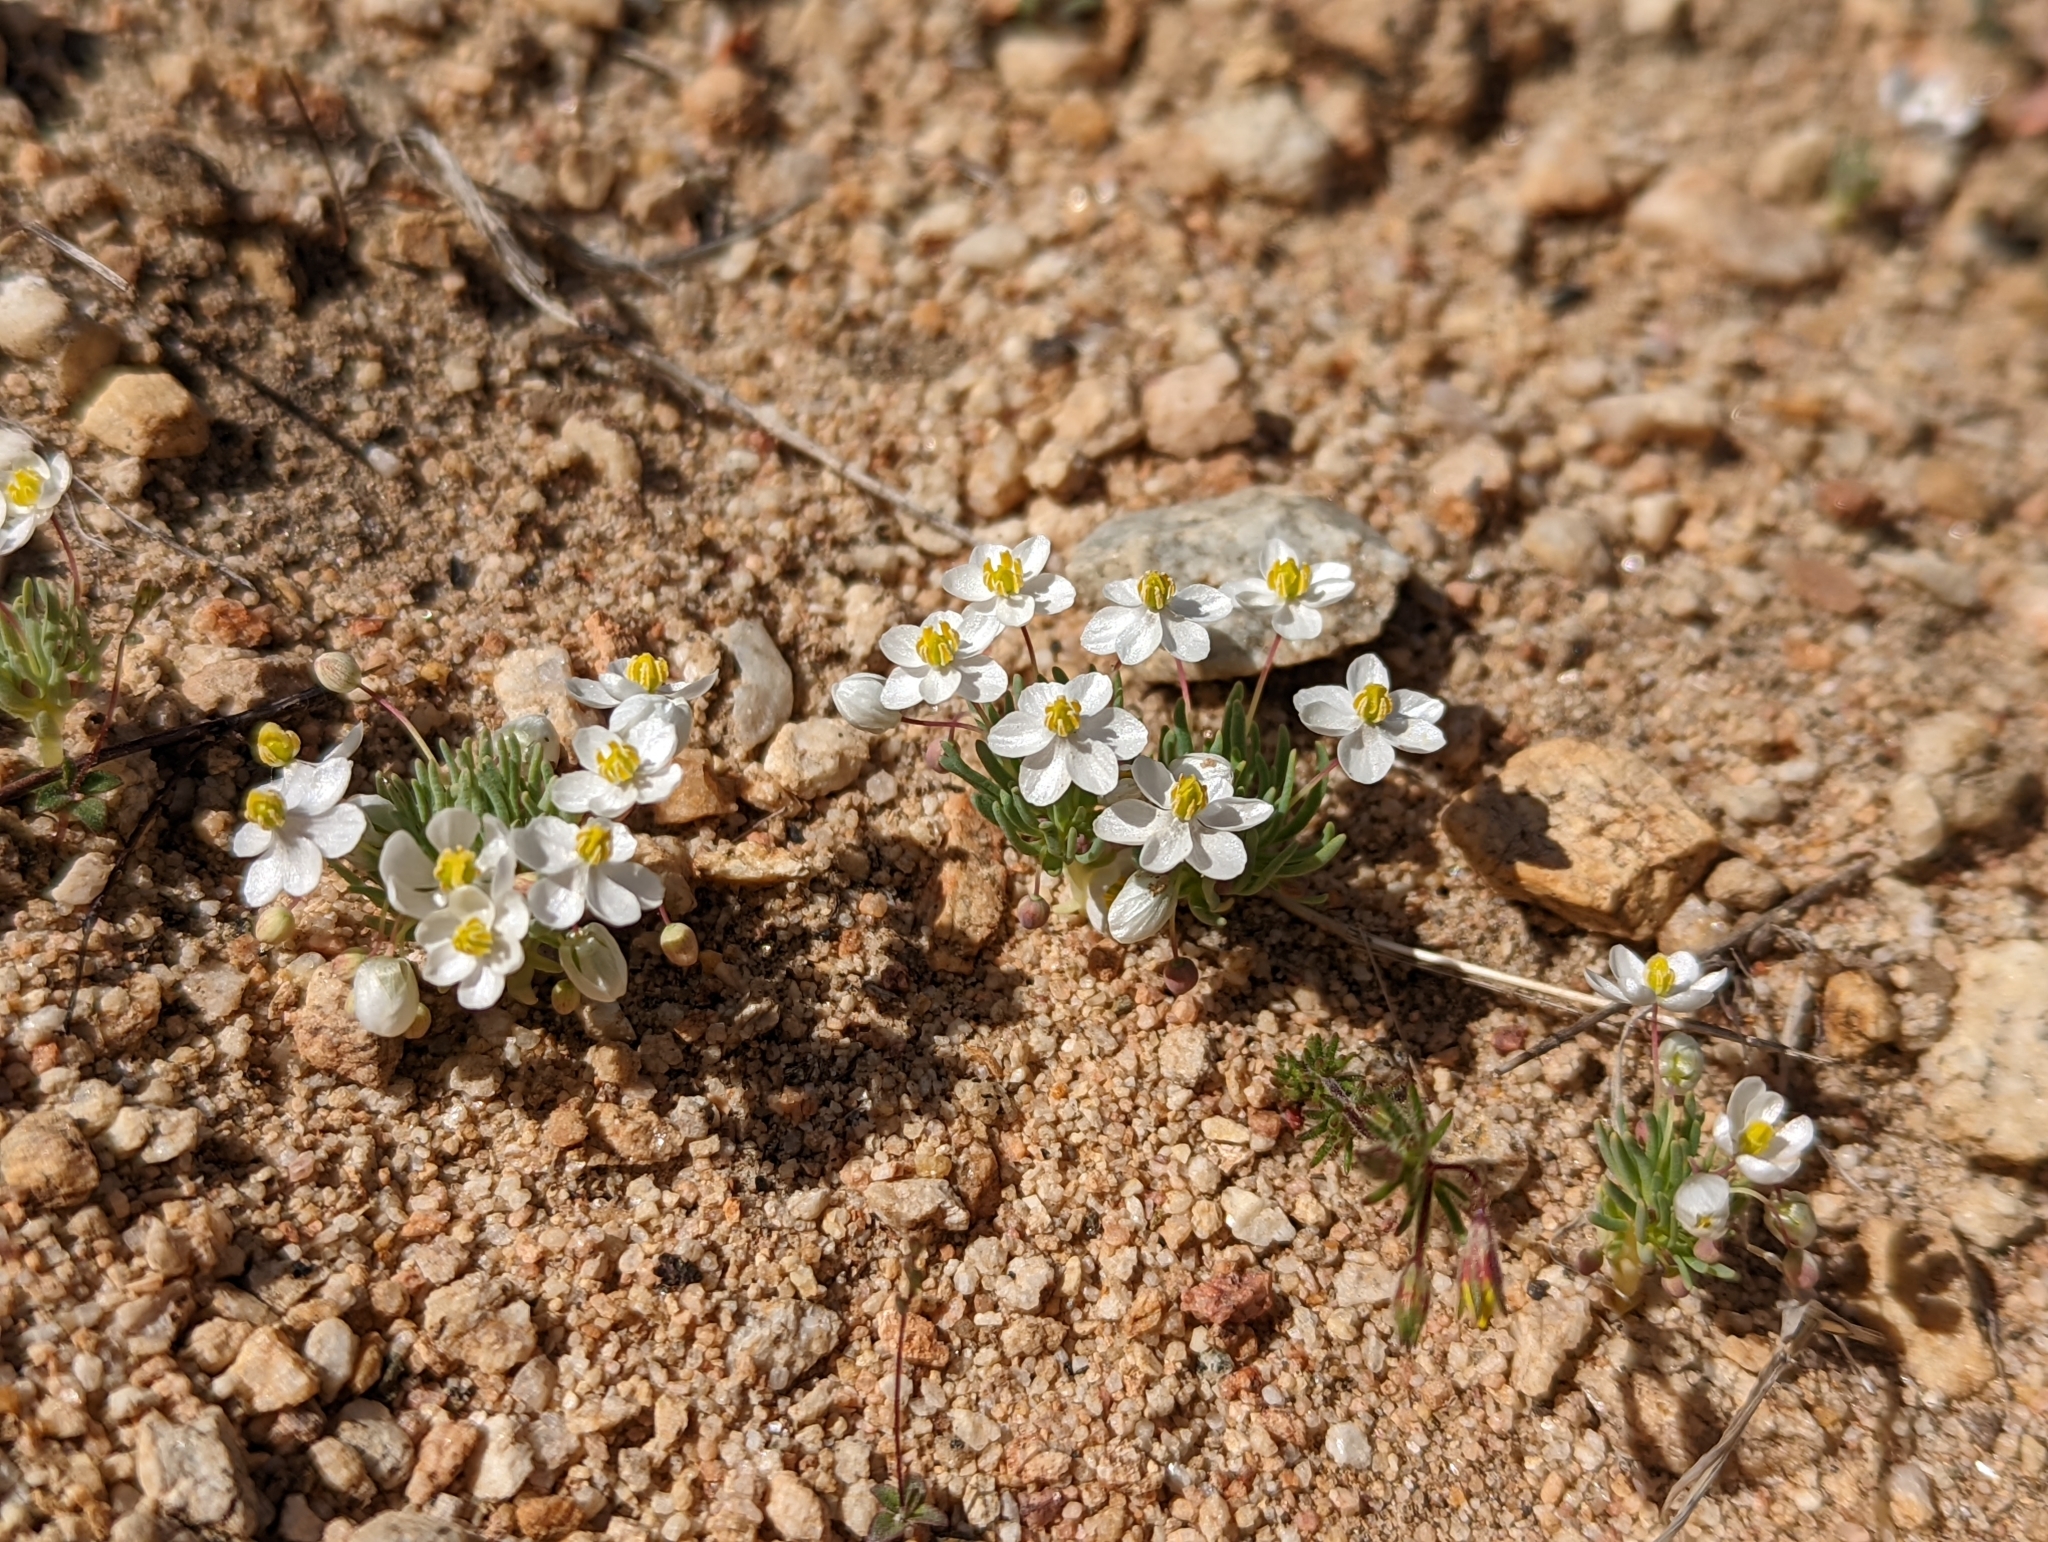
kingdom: Plantae
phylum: Tracheophyta
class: Magnoliopsida
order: Ranunculales
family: Papaveraceae
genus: Canbya
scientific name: Canbya candida
